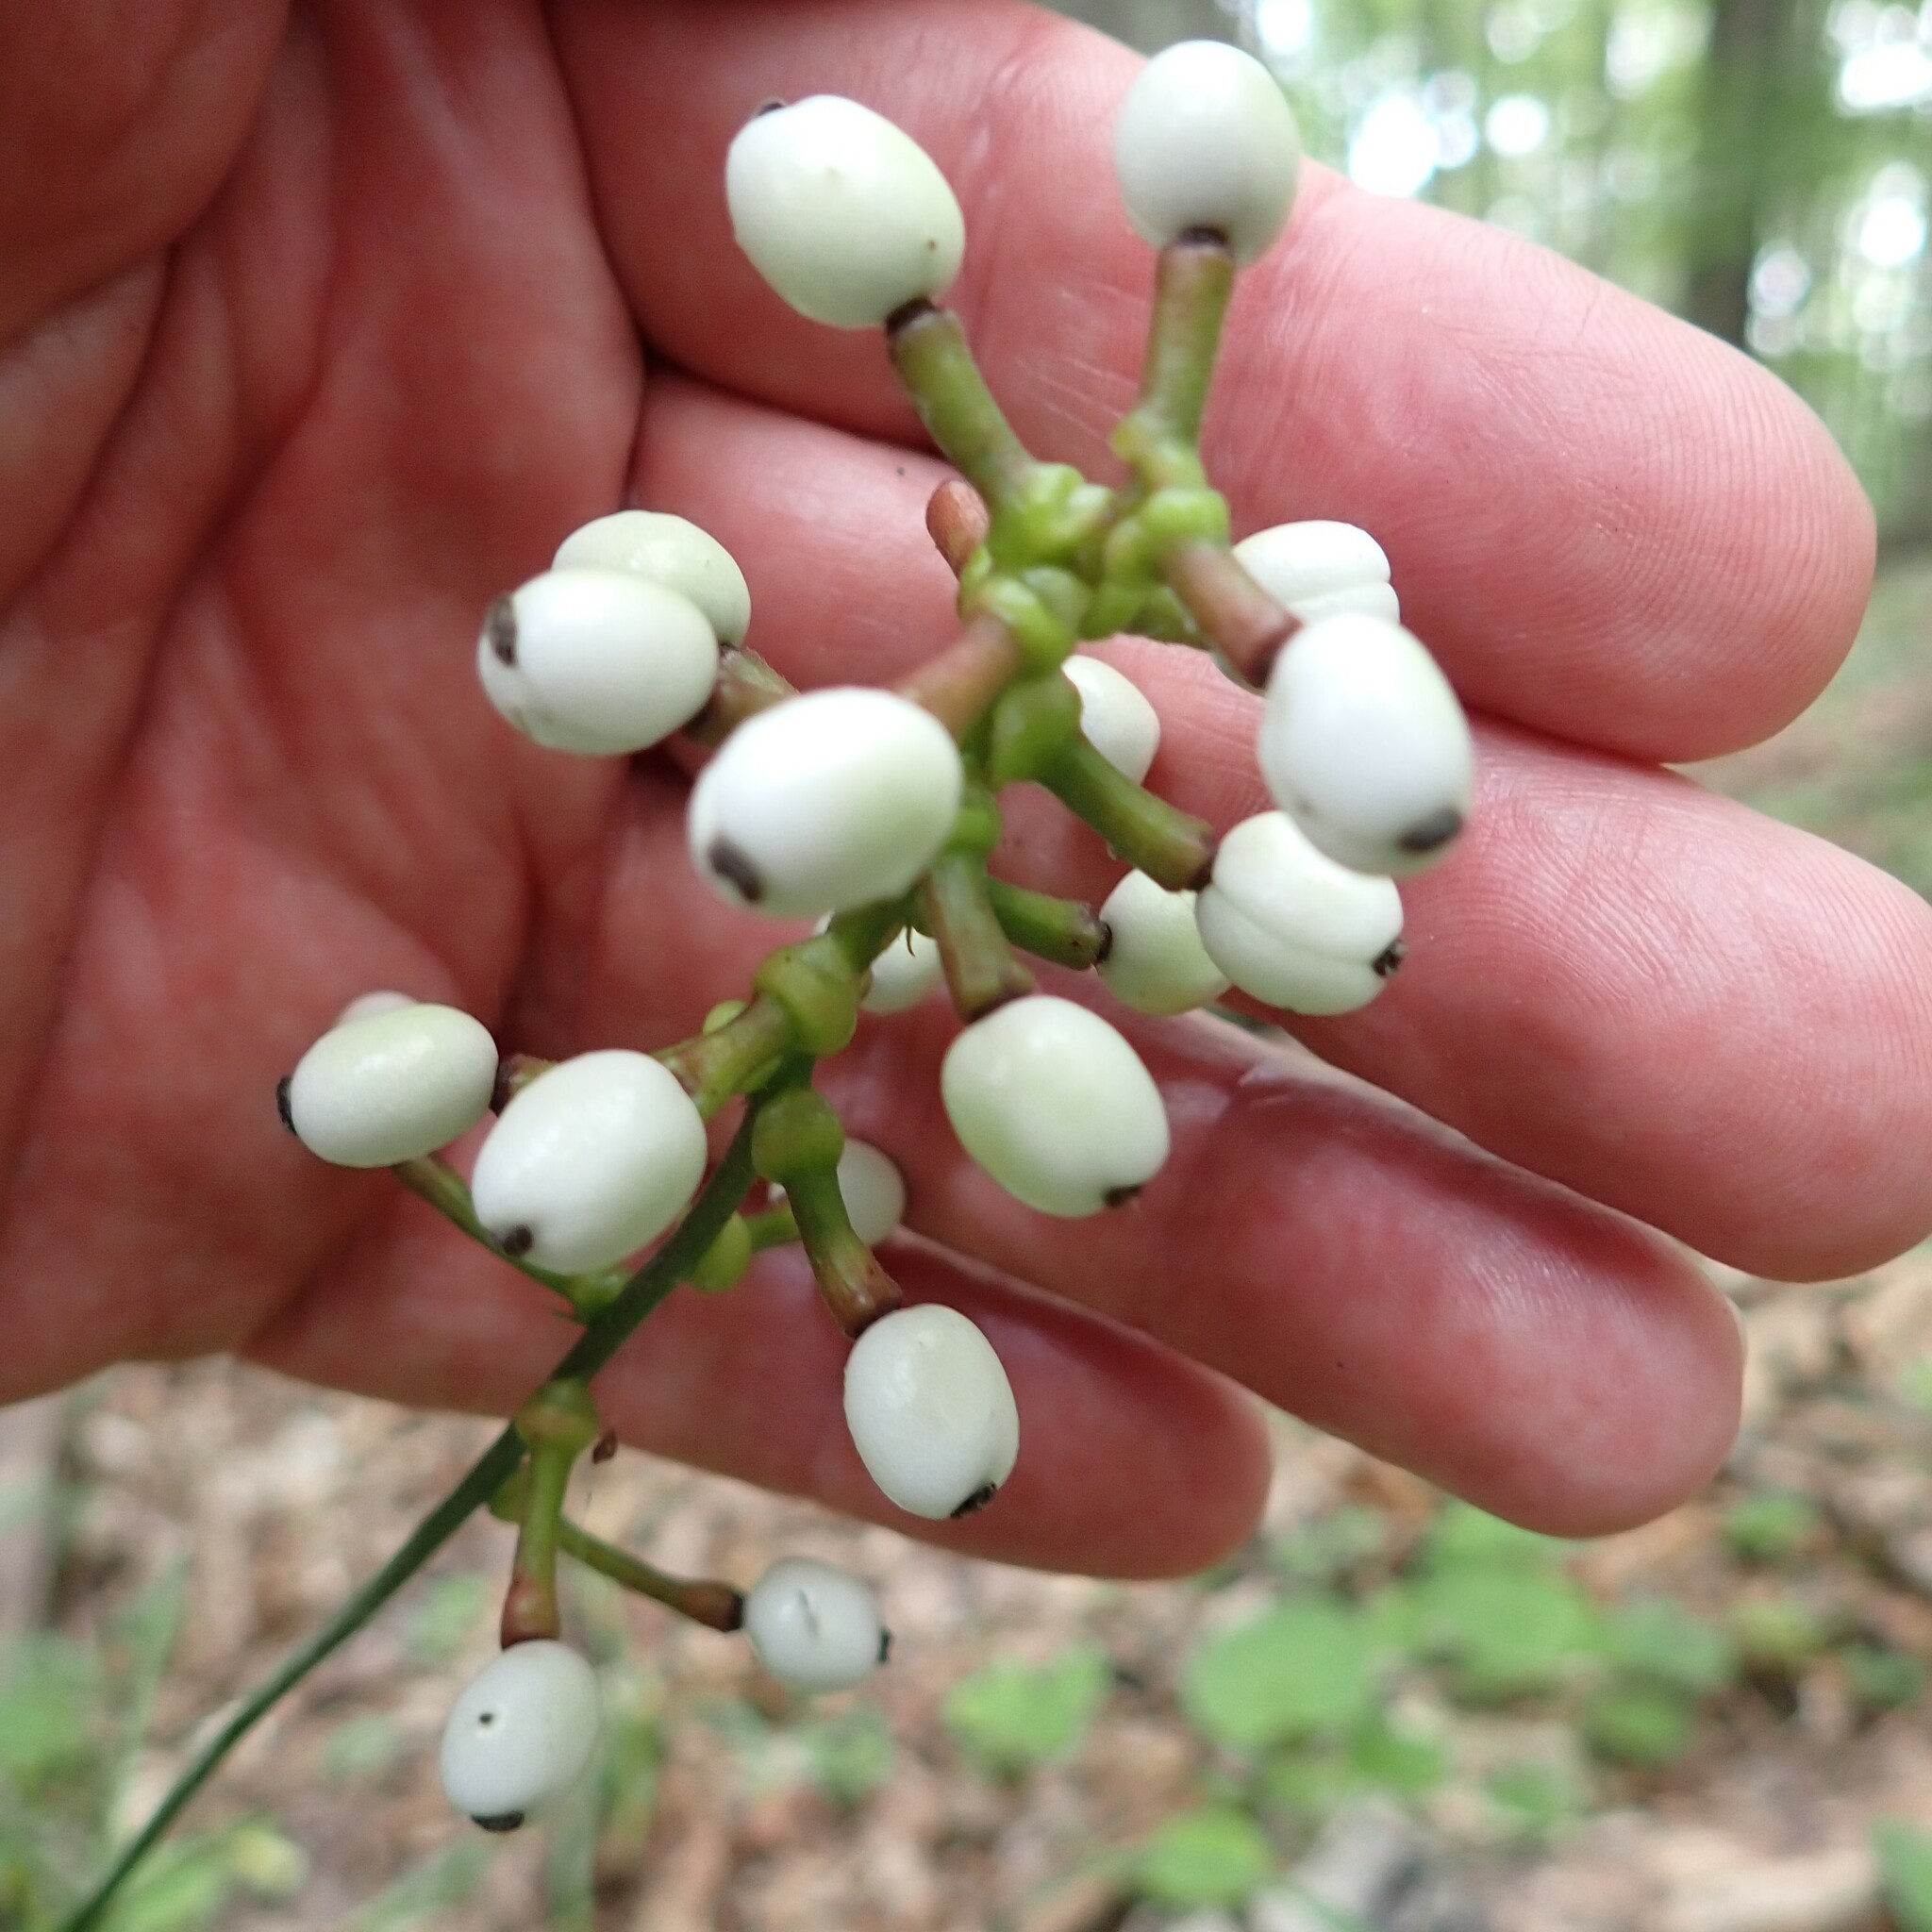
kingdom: Plantae
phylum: Tracheophyta
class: Magnoliopsida
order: Ranunculales
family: Ranunculaceae
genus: Actaea
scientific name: Actaea pachypoda
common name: Doll's-eyes
